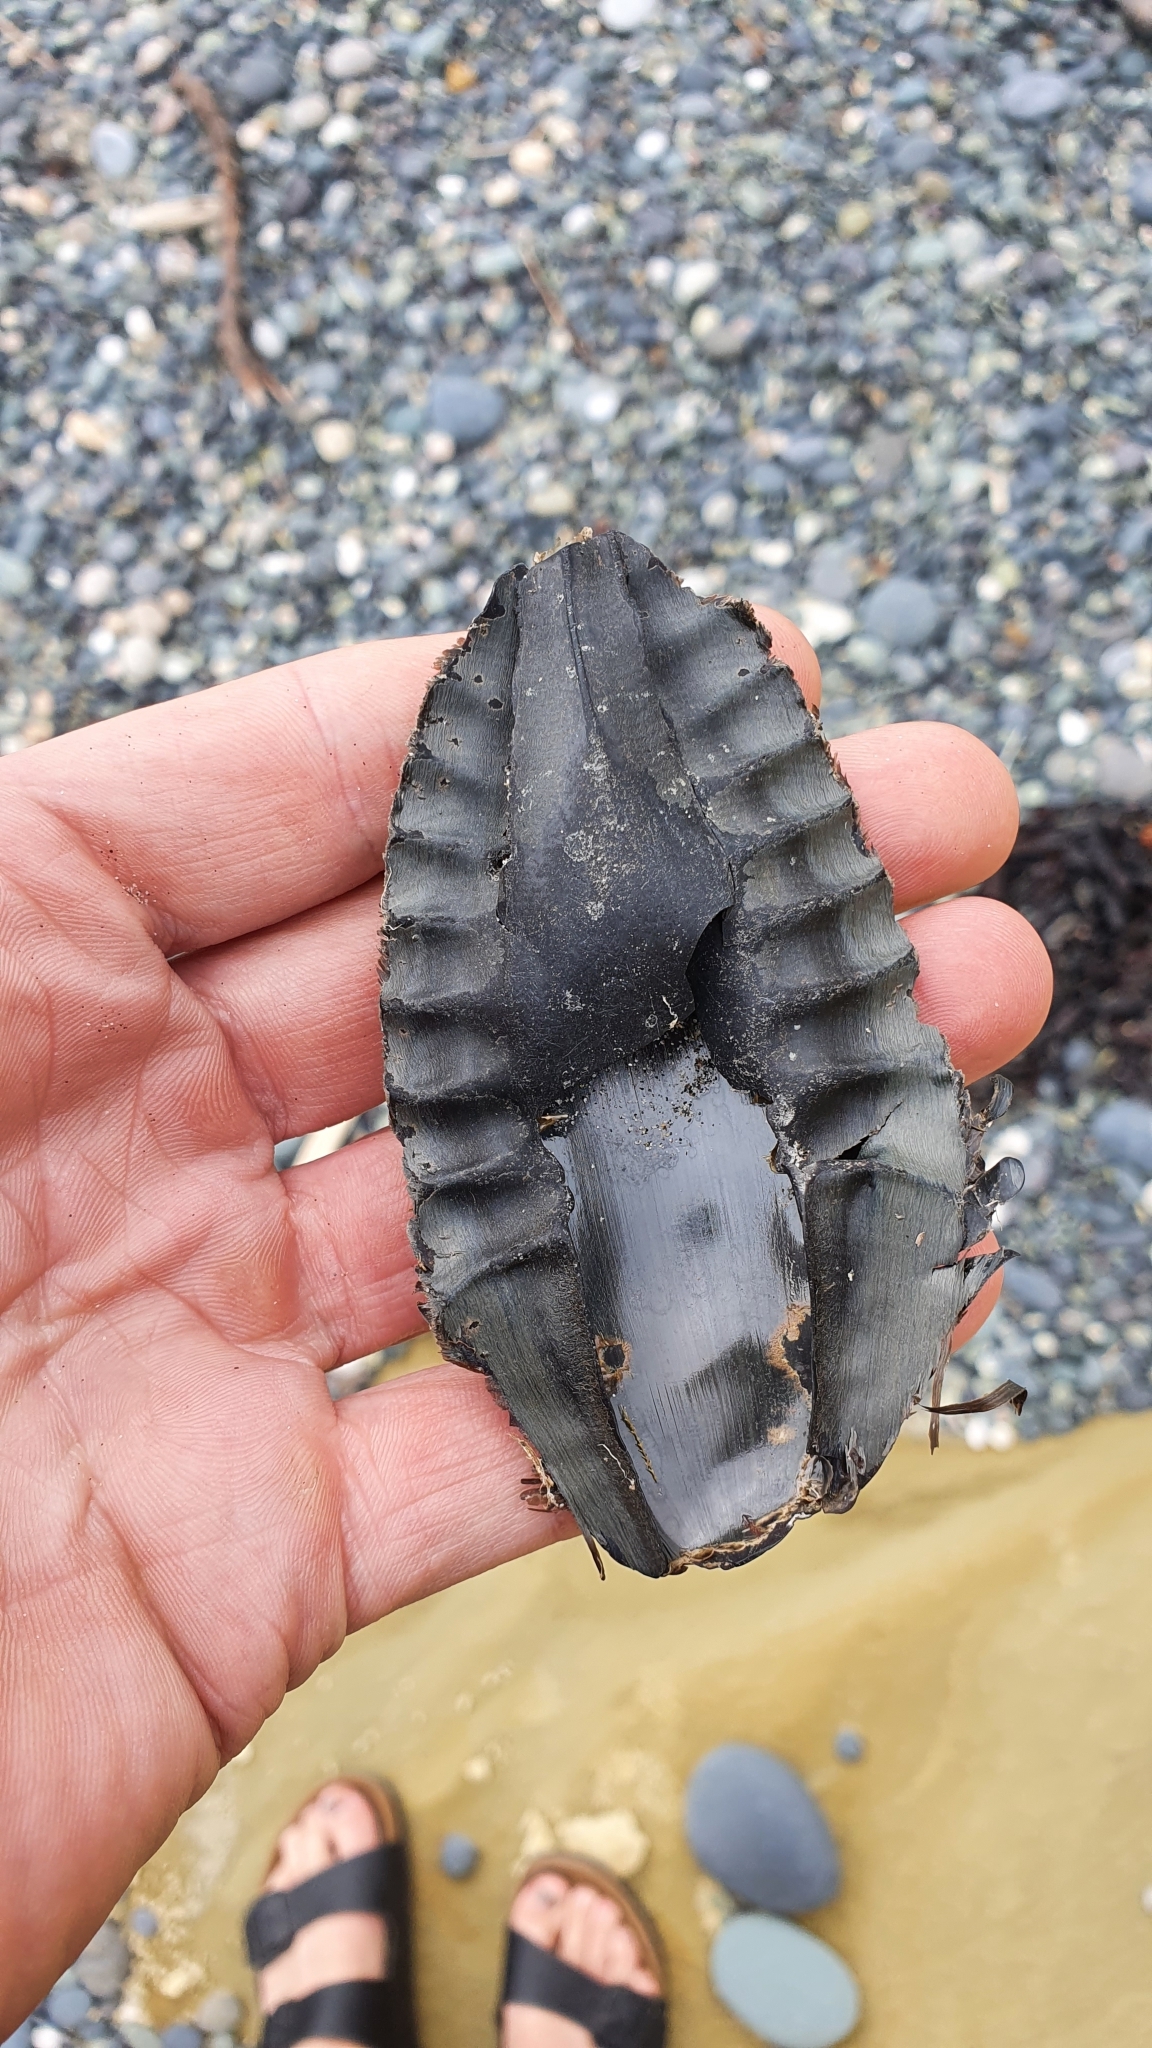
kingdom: Animalia
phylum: Chordata
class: Holocephali
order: Chimaeriformes
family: Callorhinchidae
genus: Callorhinchus
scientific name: Callorhinchus milii
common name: Elephant fish
